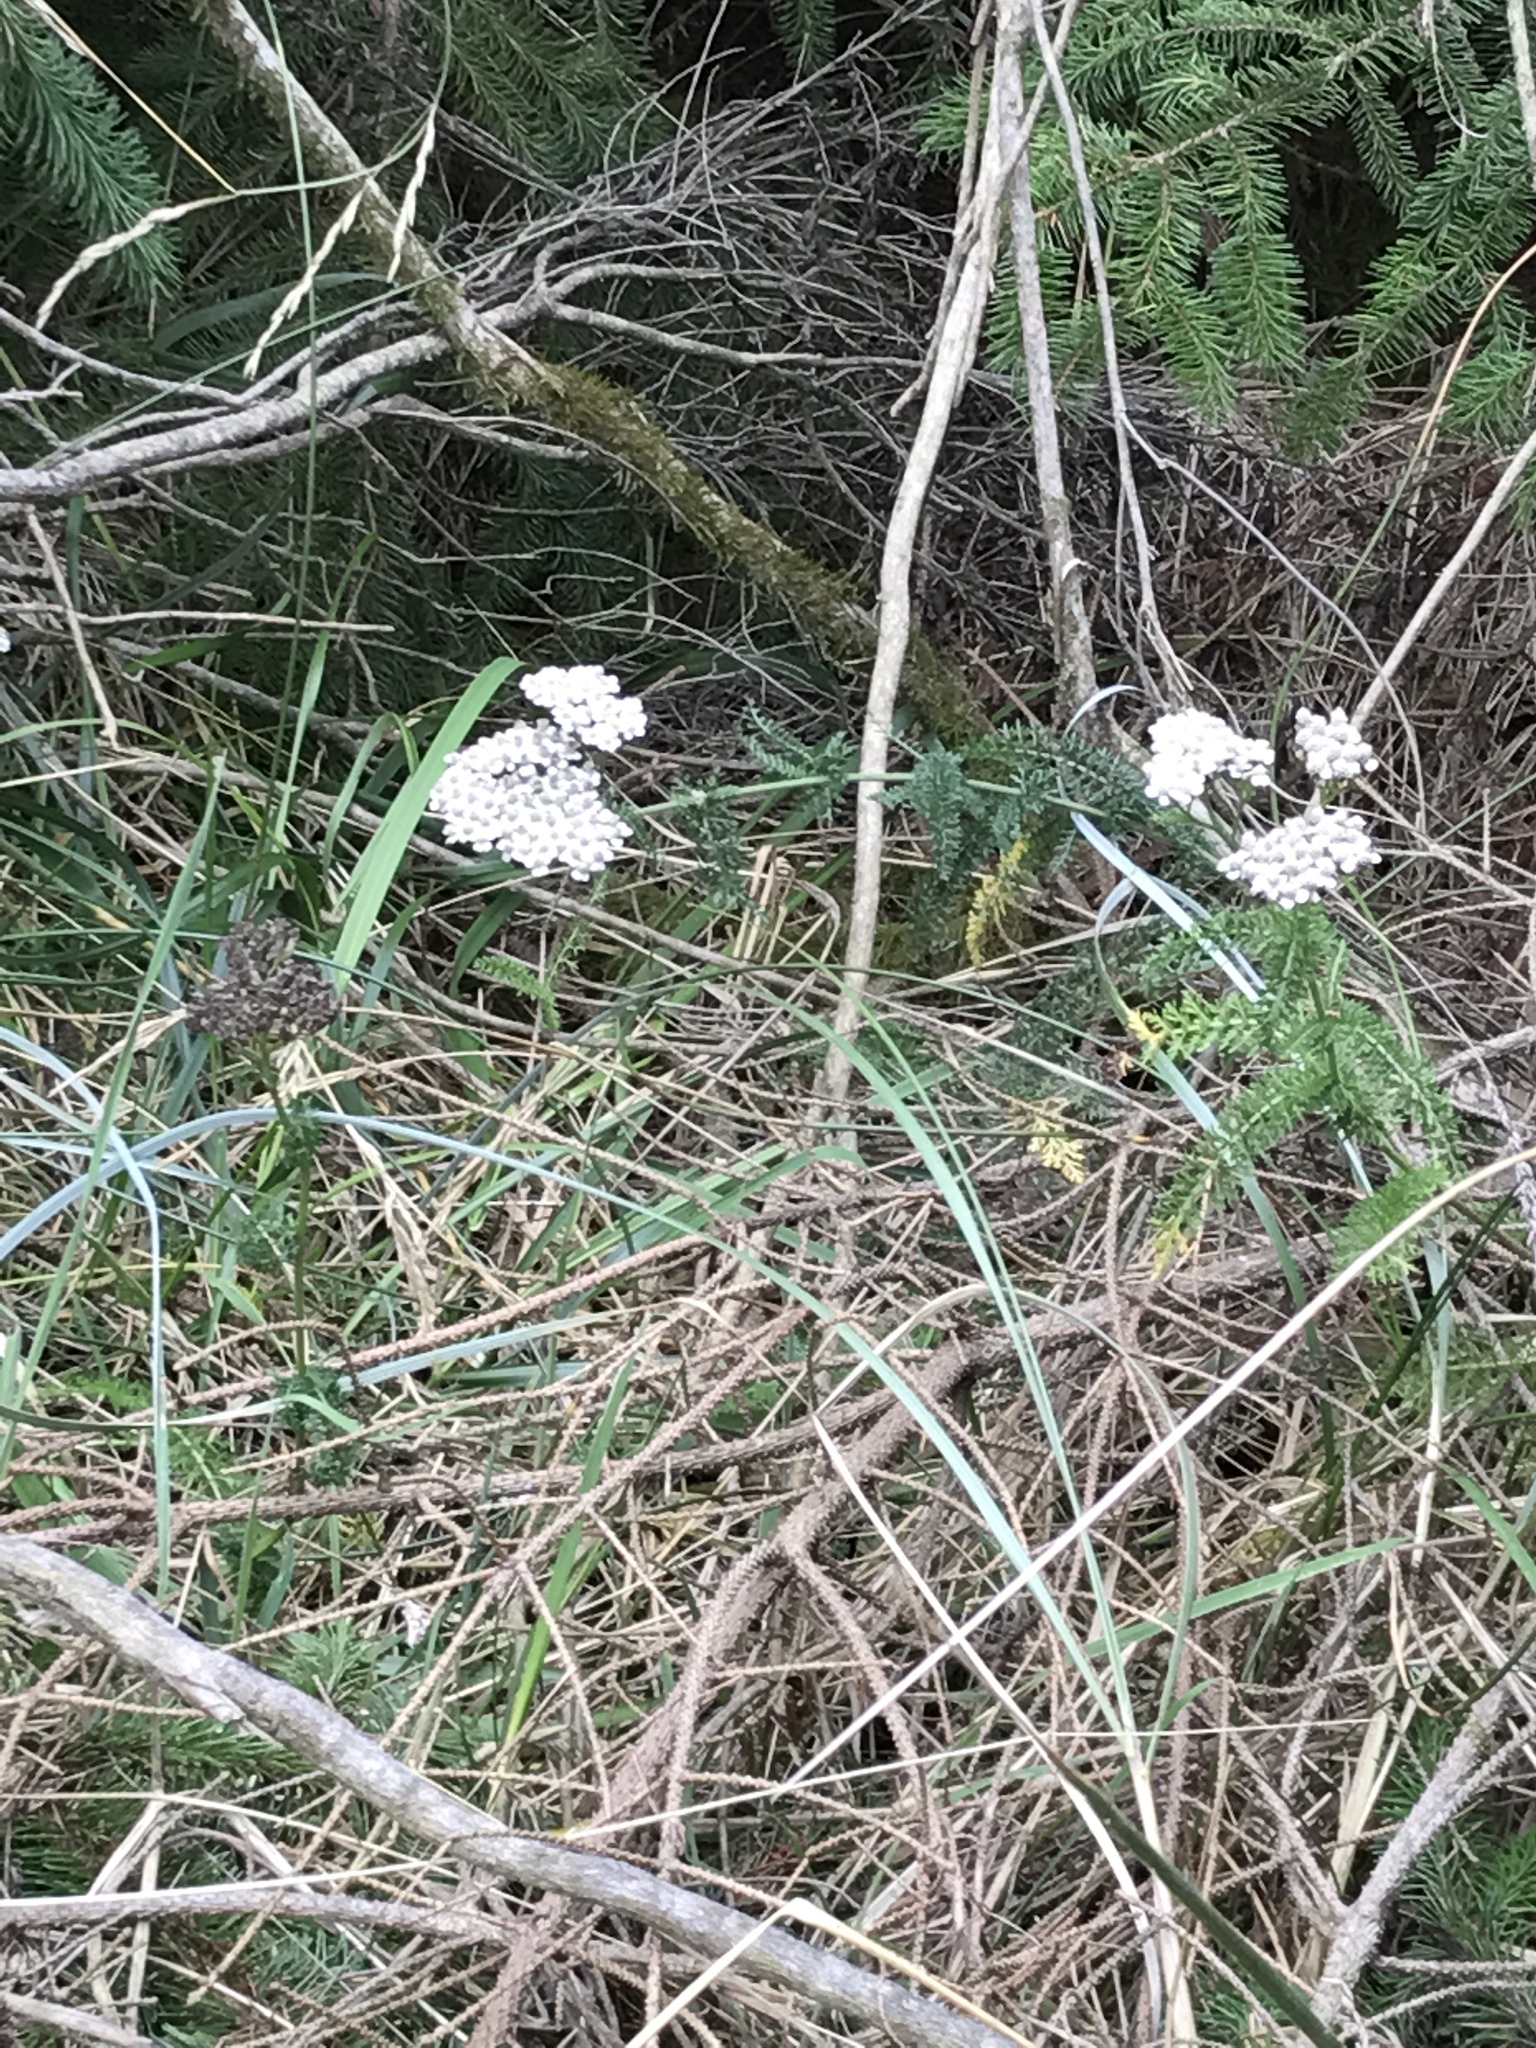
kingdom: Plantae
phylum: Tracheophyta
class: Magnoliopsida
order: Asterales
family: Asteraceae
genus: Achillea
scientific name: Achillea millefolium
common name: Yarrow
